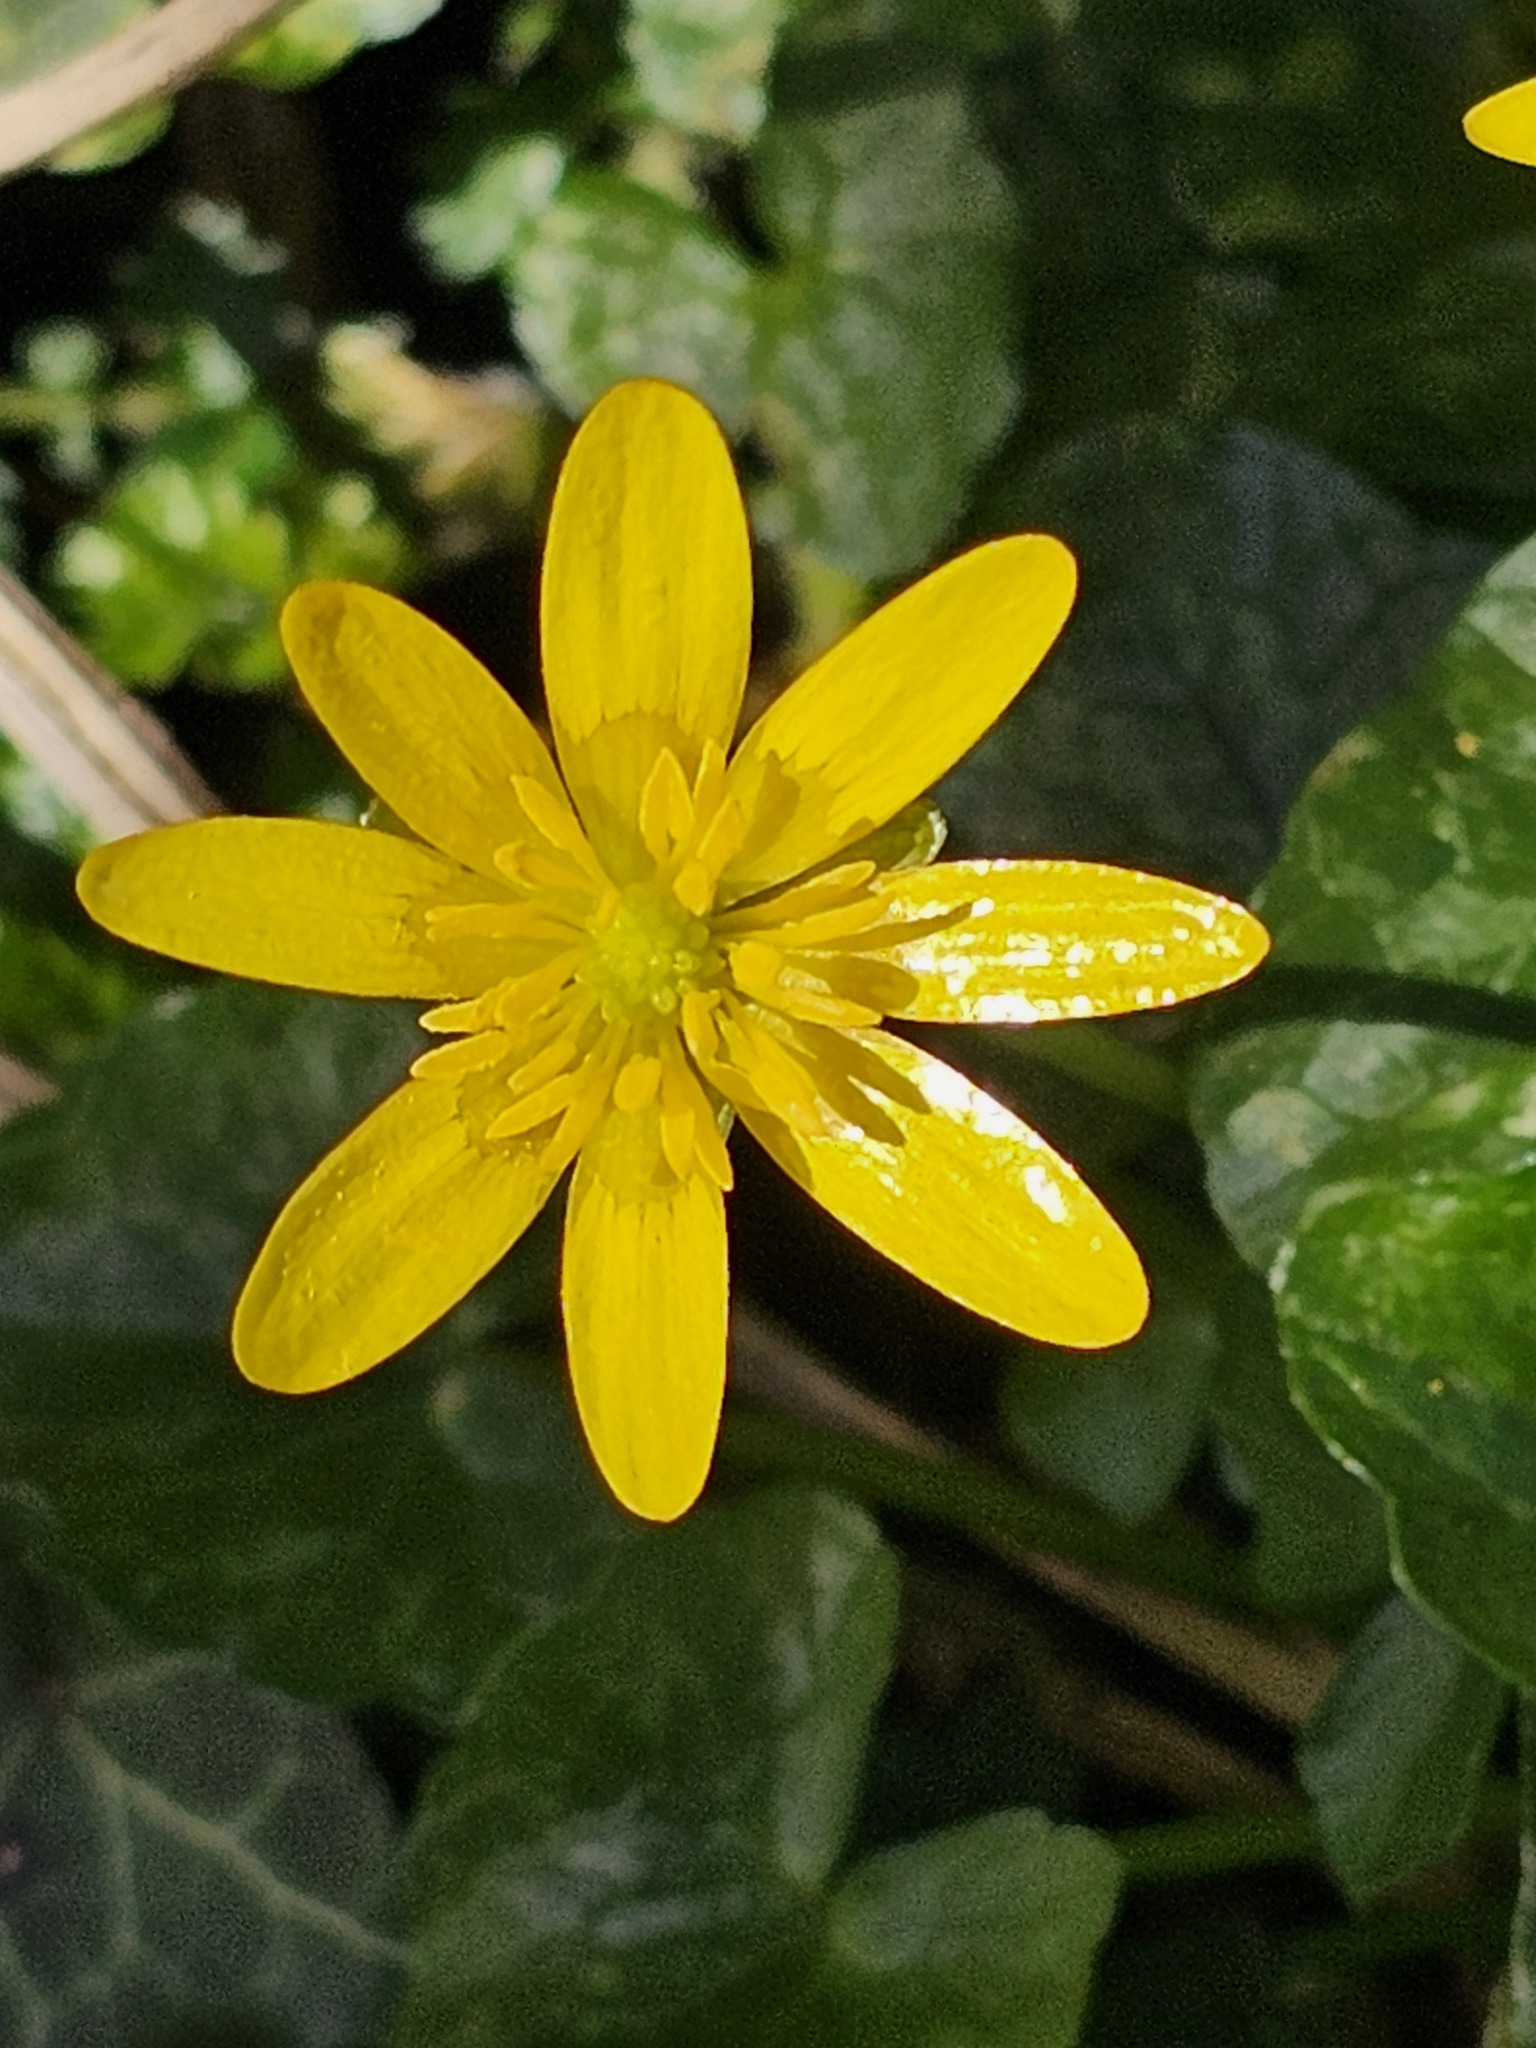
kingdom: Plantae
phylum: Tracheophyta
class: Magnoliopsida
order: Ranunculales
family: Ranunculaceae
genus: Ficaria
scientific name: Ficaria verna
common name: Lesser celandine
